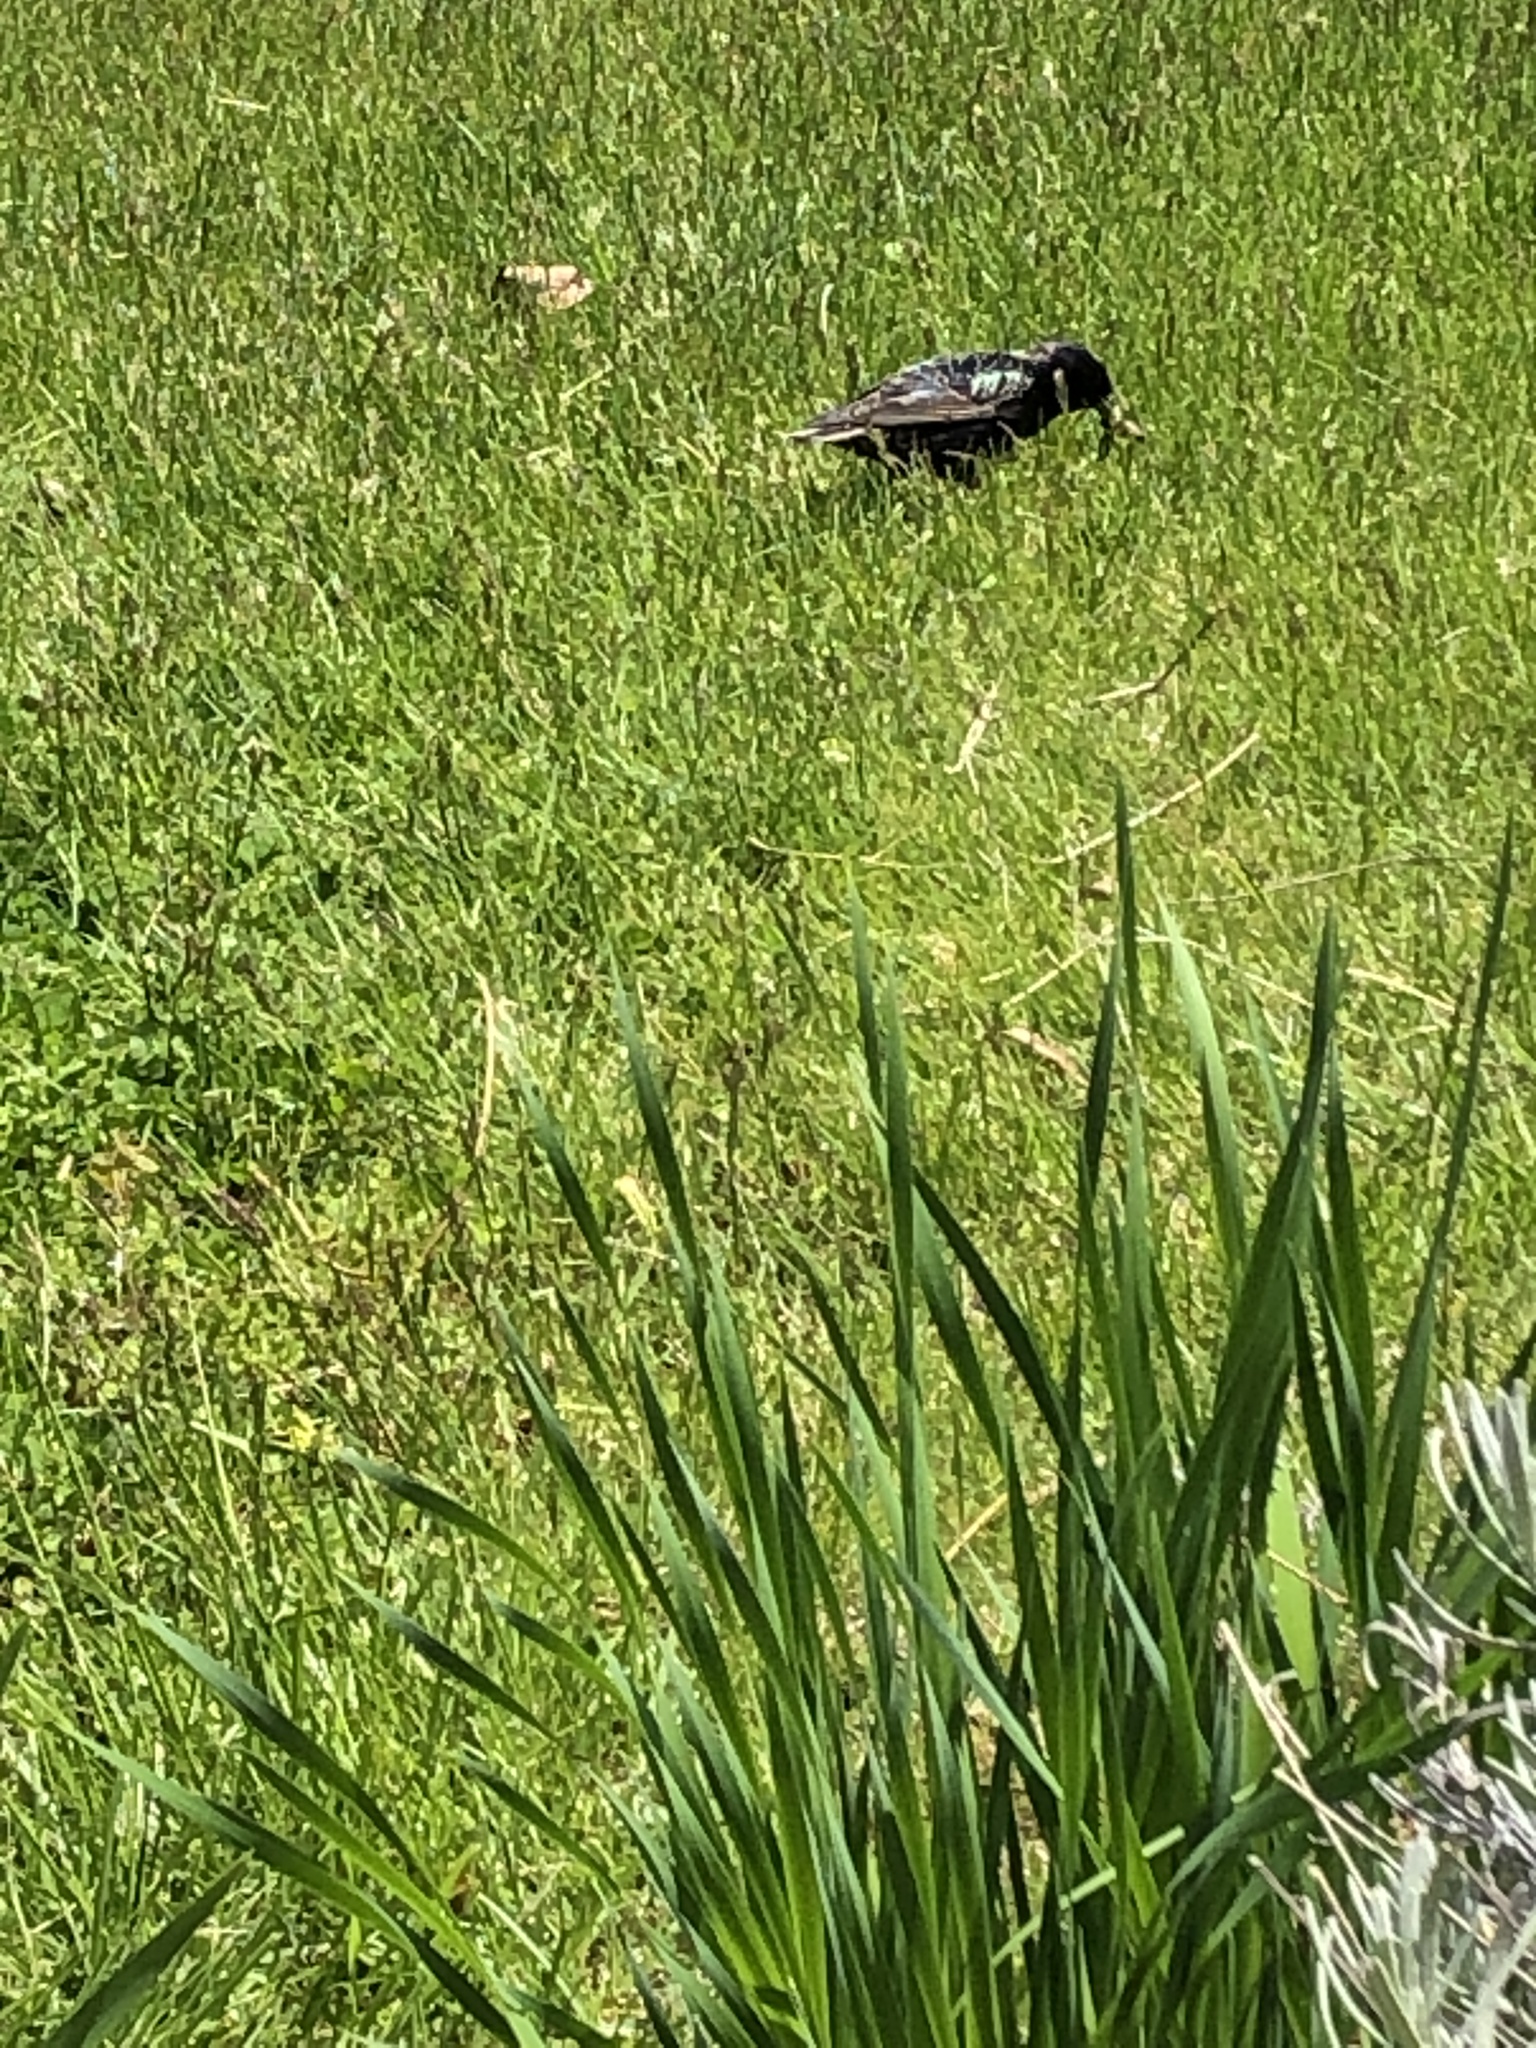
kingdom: Animalia
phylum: Chordata
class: Aves
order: Passeriformes
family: Sturnidae
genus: Sturnus
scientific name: Sturnus vulgaris
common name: Common starling
